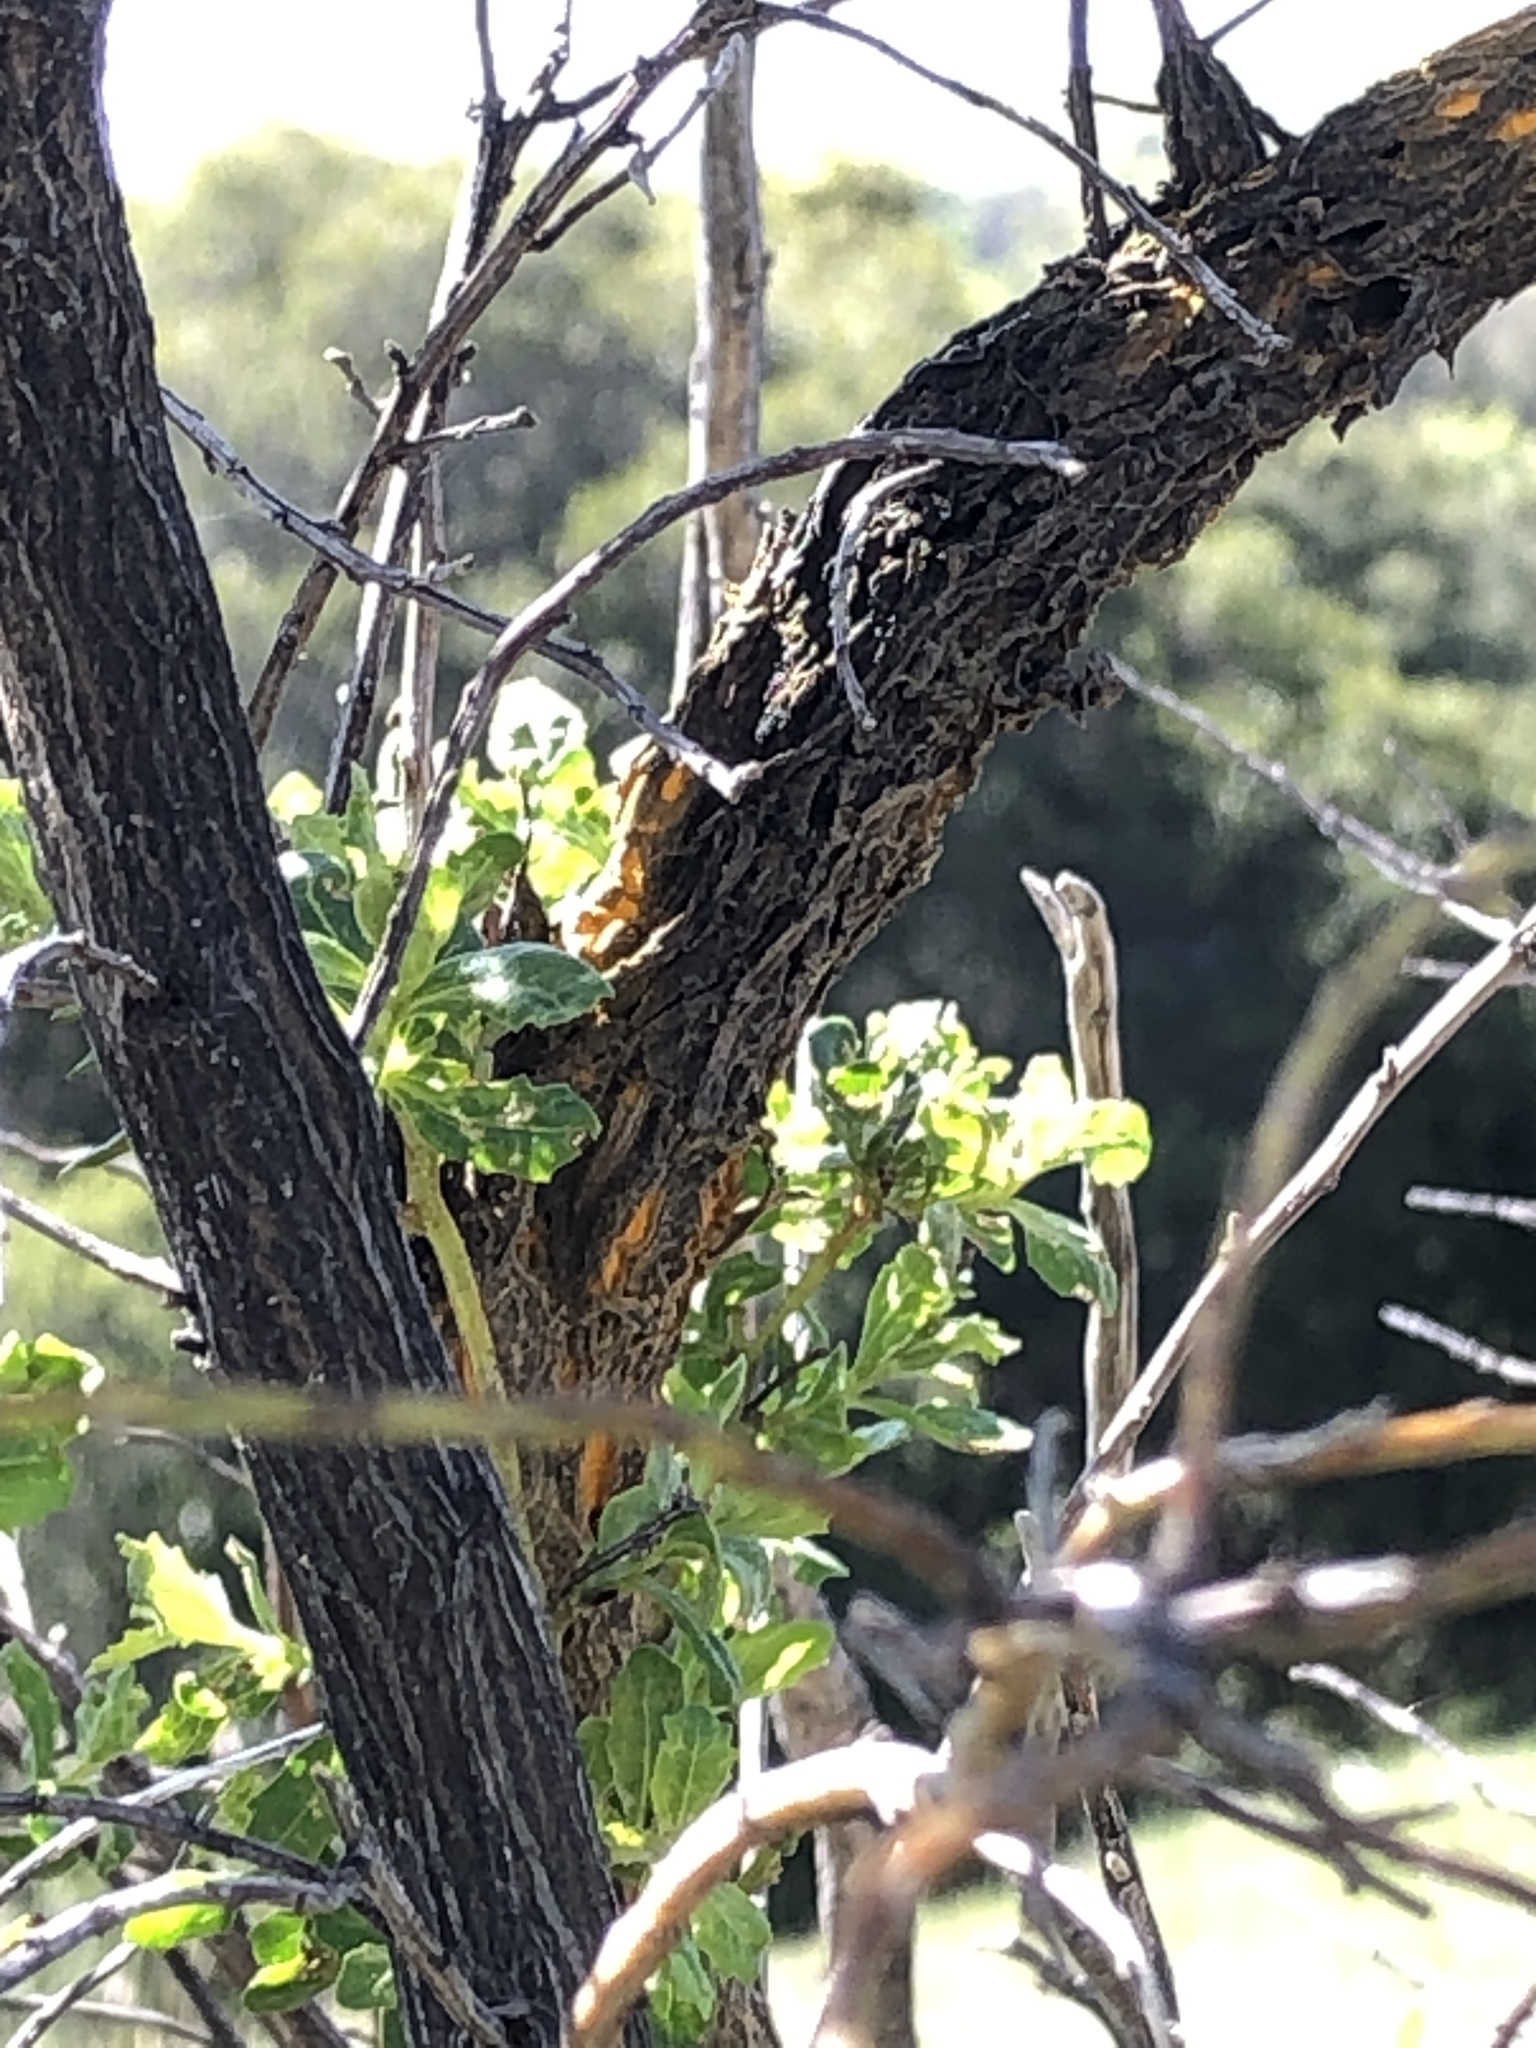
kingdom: Fungi
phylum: Basidiomycota
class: Pucciniomycetes
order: Pucciniales
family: Pucciniaceae
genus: Eriosporangium
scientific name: Eriosporangium evadens
